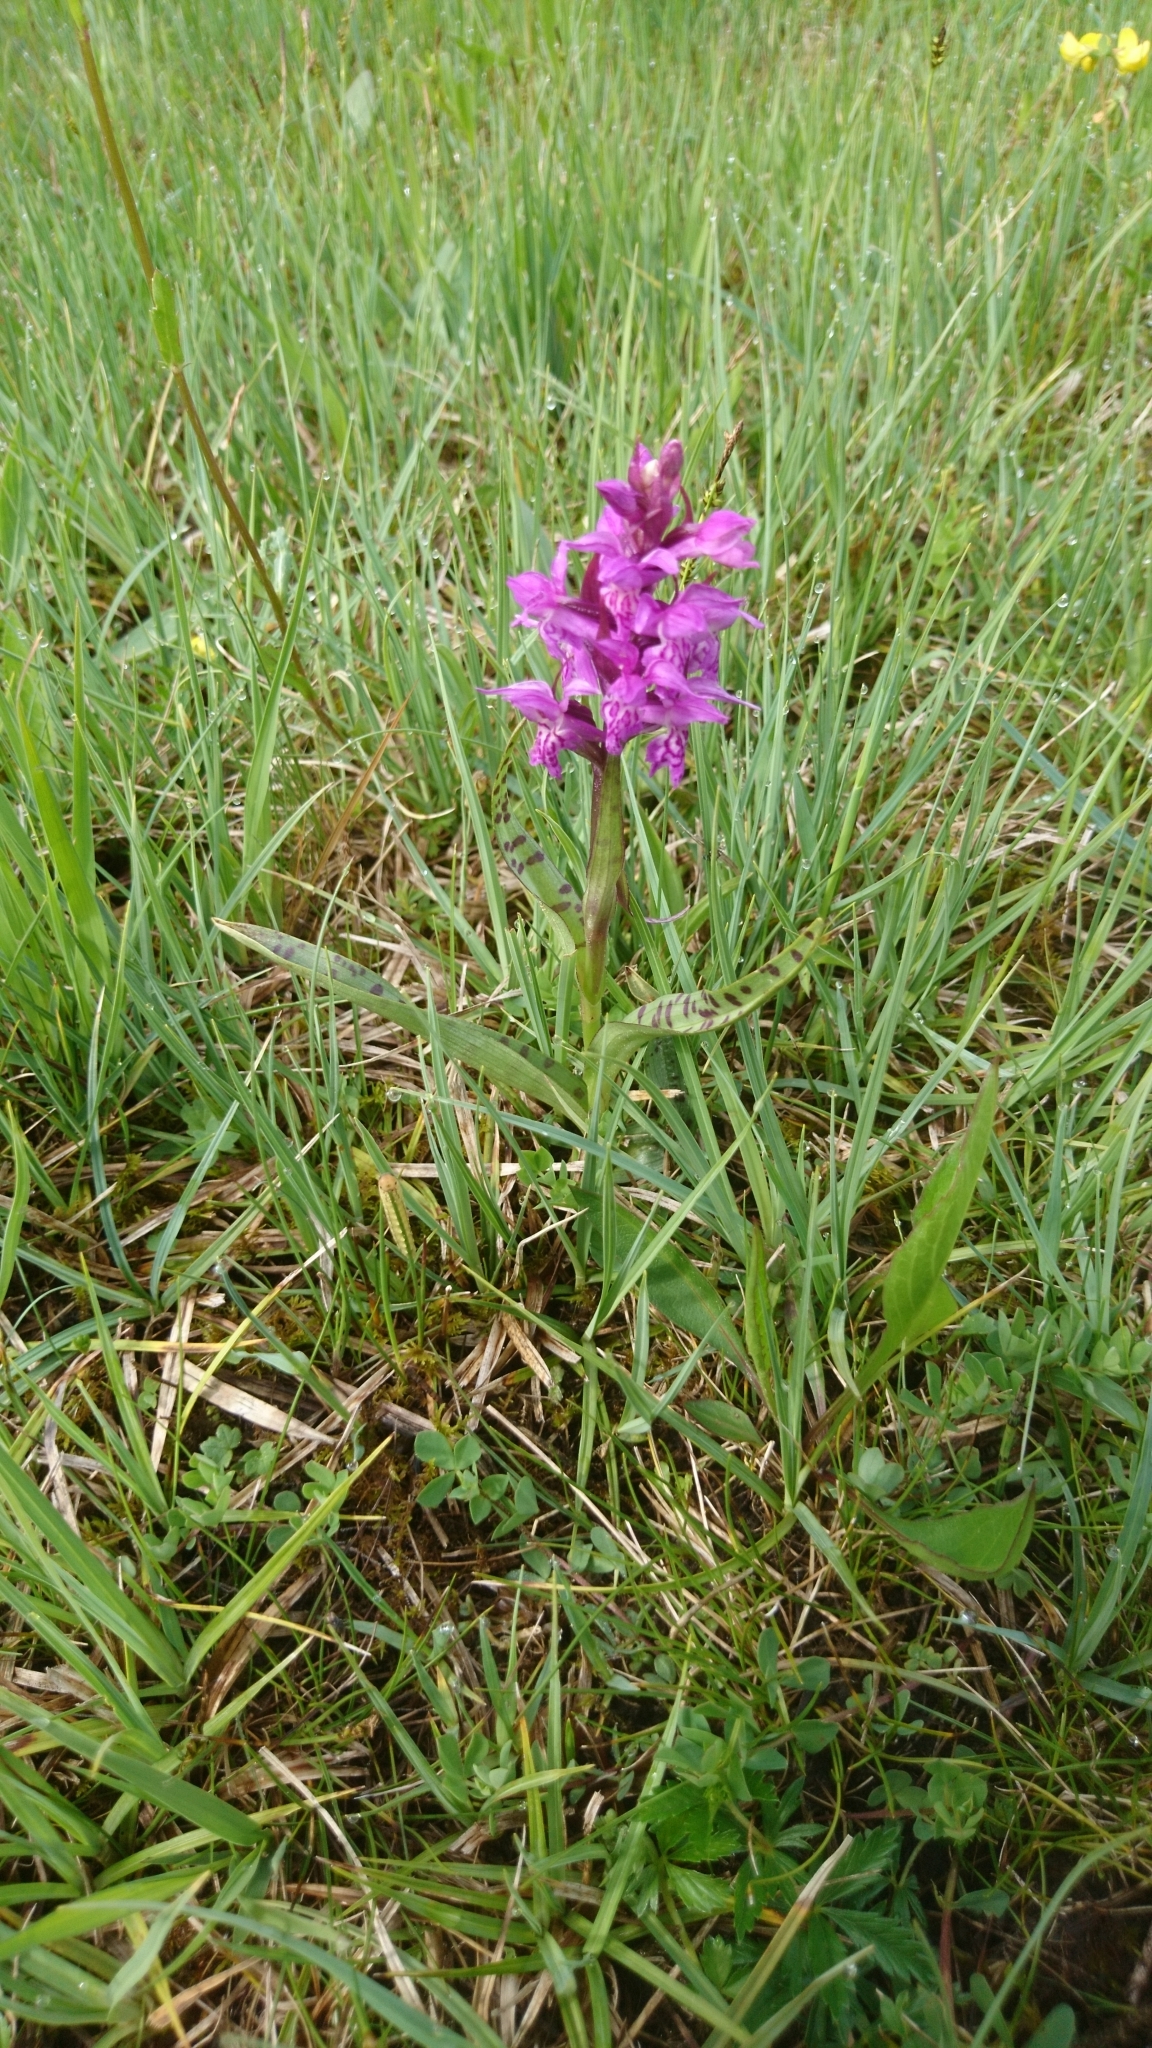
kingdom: Plantae
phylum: Tracheophyta
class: Liliopsida
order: Asparagales
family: Orchidaceae
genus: Dactylorhiza
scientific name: Dactylorhiza majalis
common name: Marsh orchid
